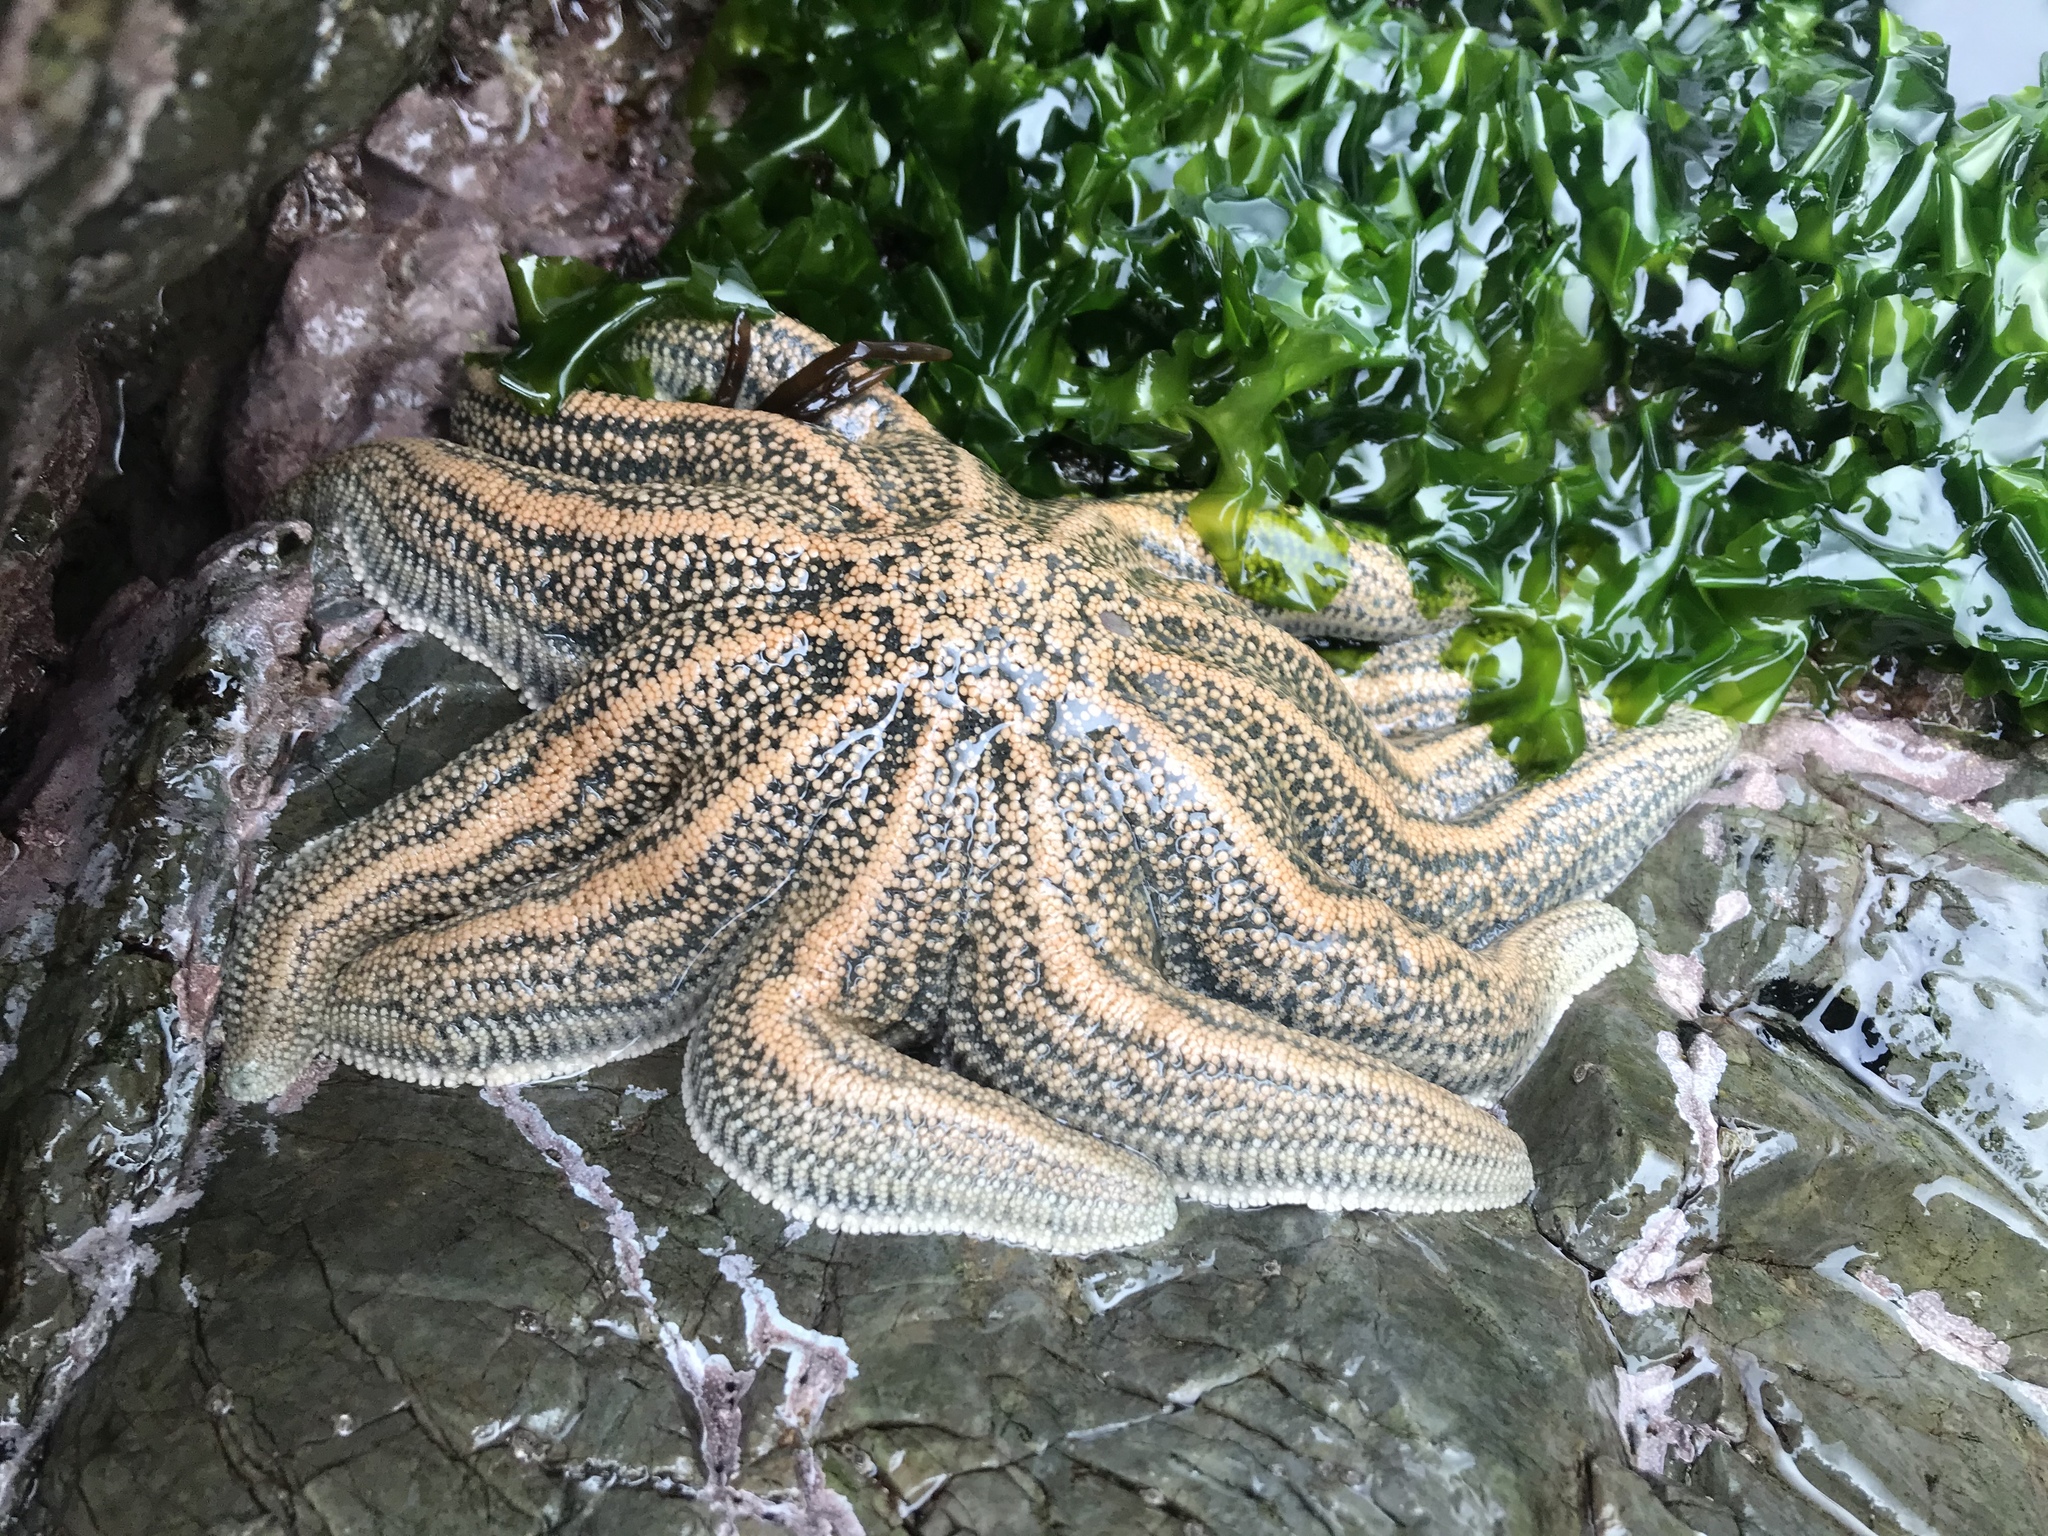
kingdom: Animalia
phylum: Echinodermata
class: Asteroidea
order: Forcipulatida
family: Stichasteridae
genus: Stichaster
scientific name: Stichaster australis
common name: Reef starfish
